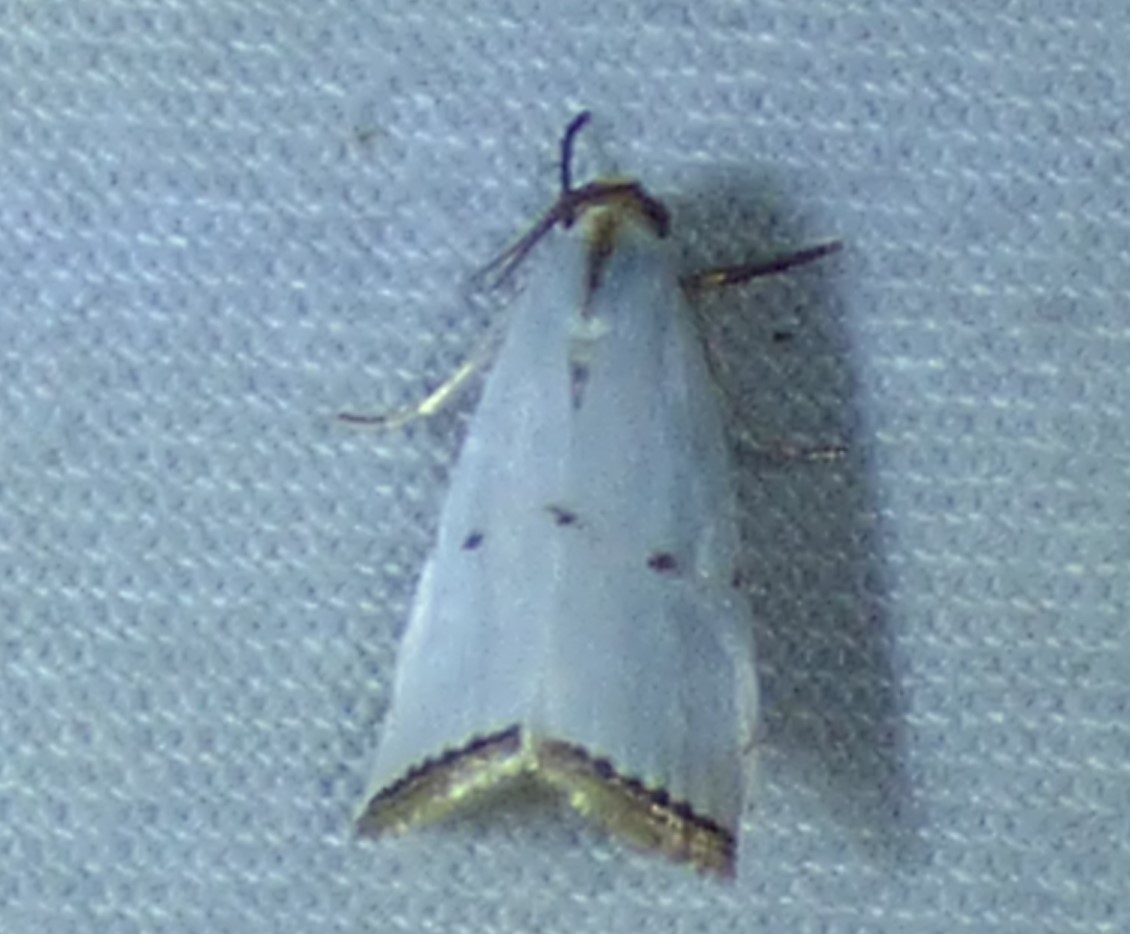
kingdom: Animalia
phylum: Arthropoda
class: Insecta
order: Lepidoptera
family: Crambidae
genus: Argyria
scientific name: Argyria pusillalis
